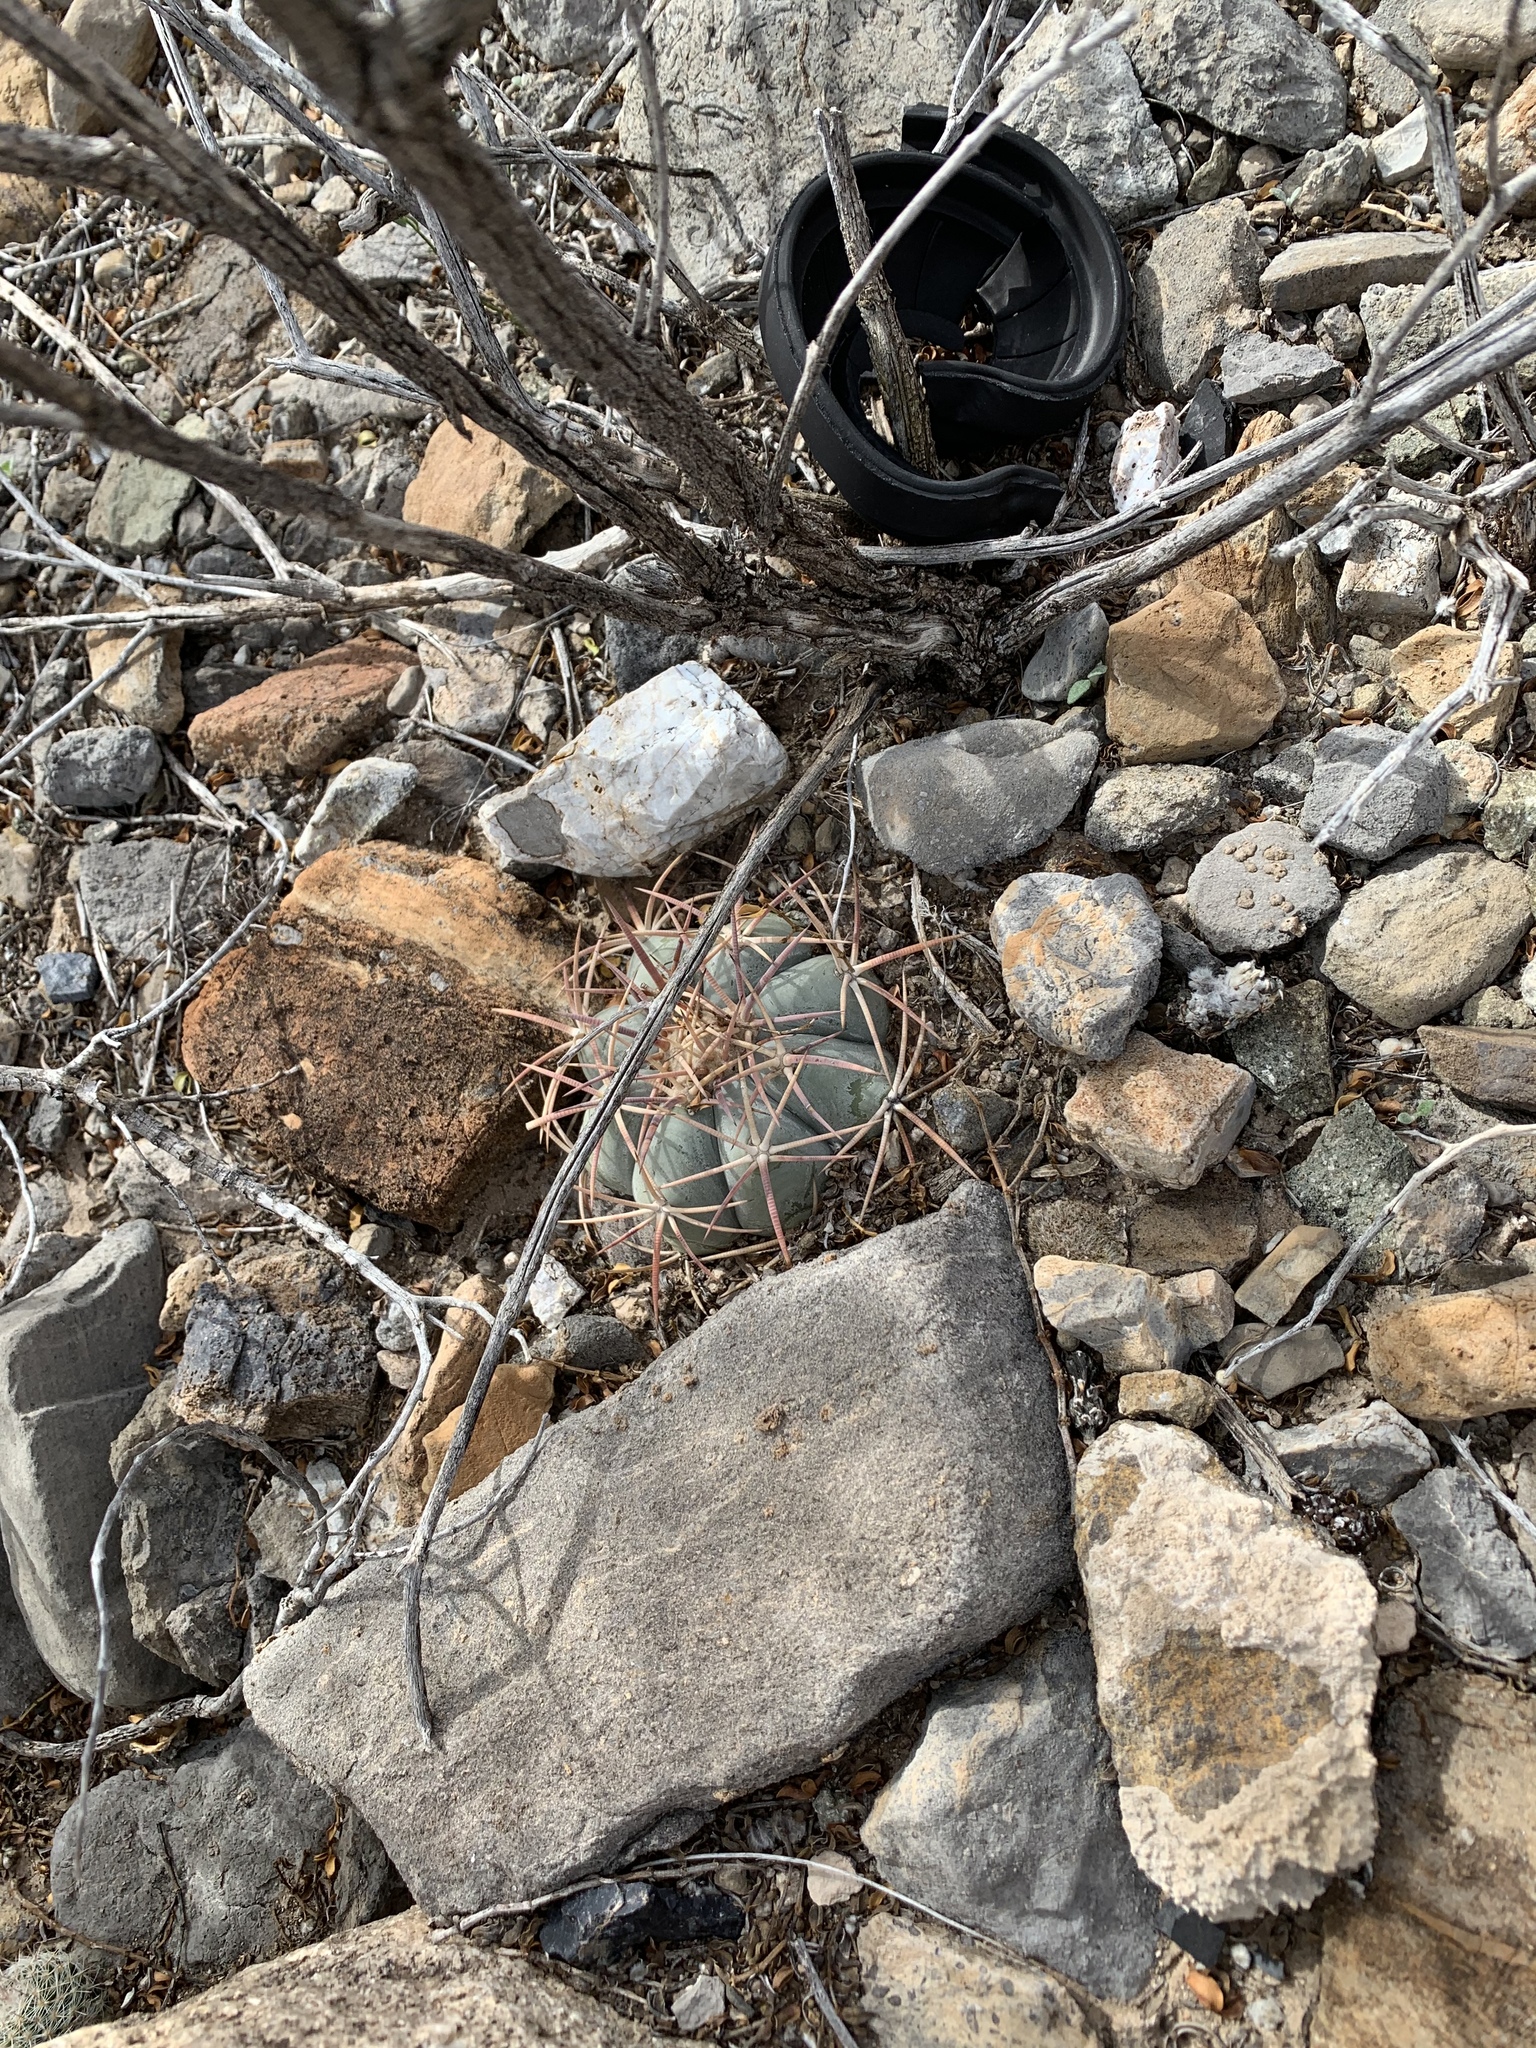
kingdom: Plantae
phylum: Tracheophyta
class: Magnoliopsida
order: Caryophyllales
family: Cactaceae
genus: Echinocactus
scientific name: Echinocactus horizonthalonius
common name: Devilshead
